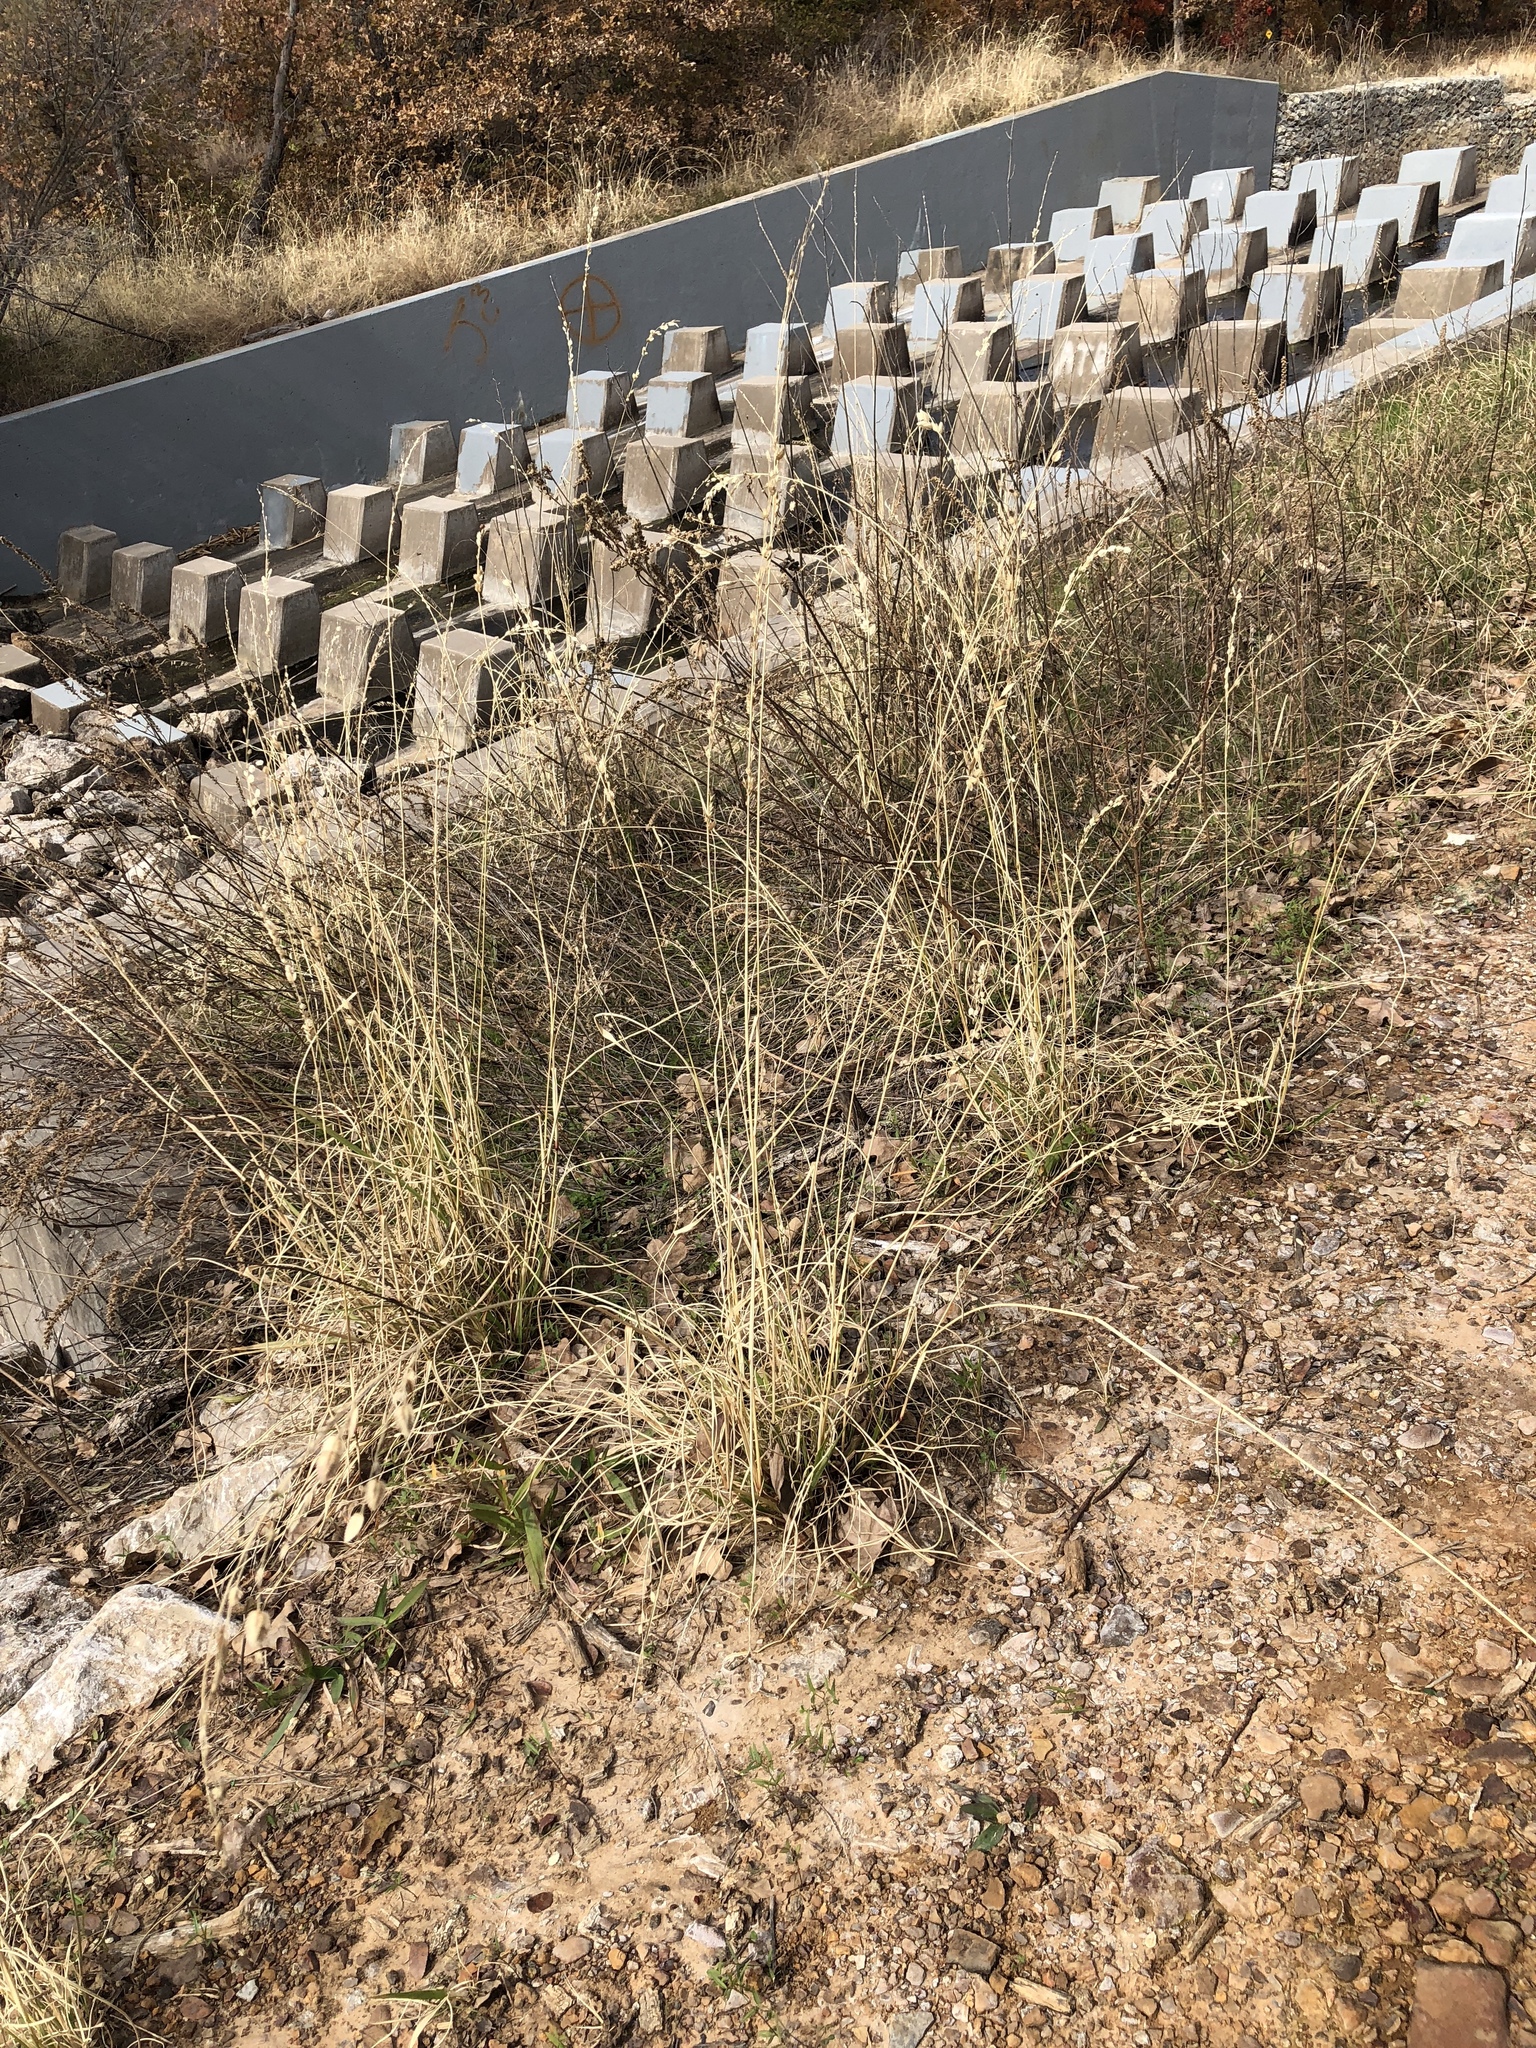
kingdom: Plantae
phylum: Tracheophyta
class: Liliopsida
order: Poales
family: Poaceae
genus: Eragrostis
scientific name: Eragrostis superba
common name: Wilman lovegrass
